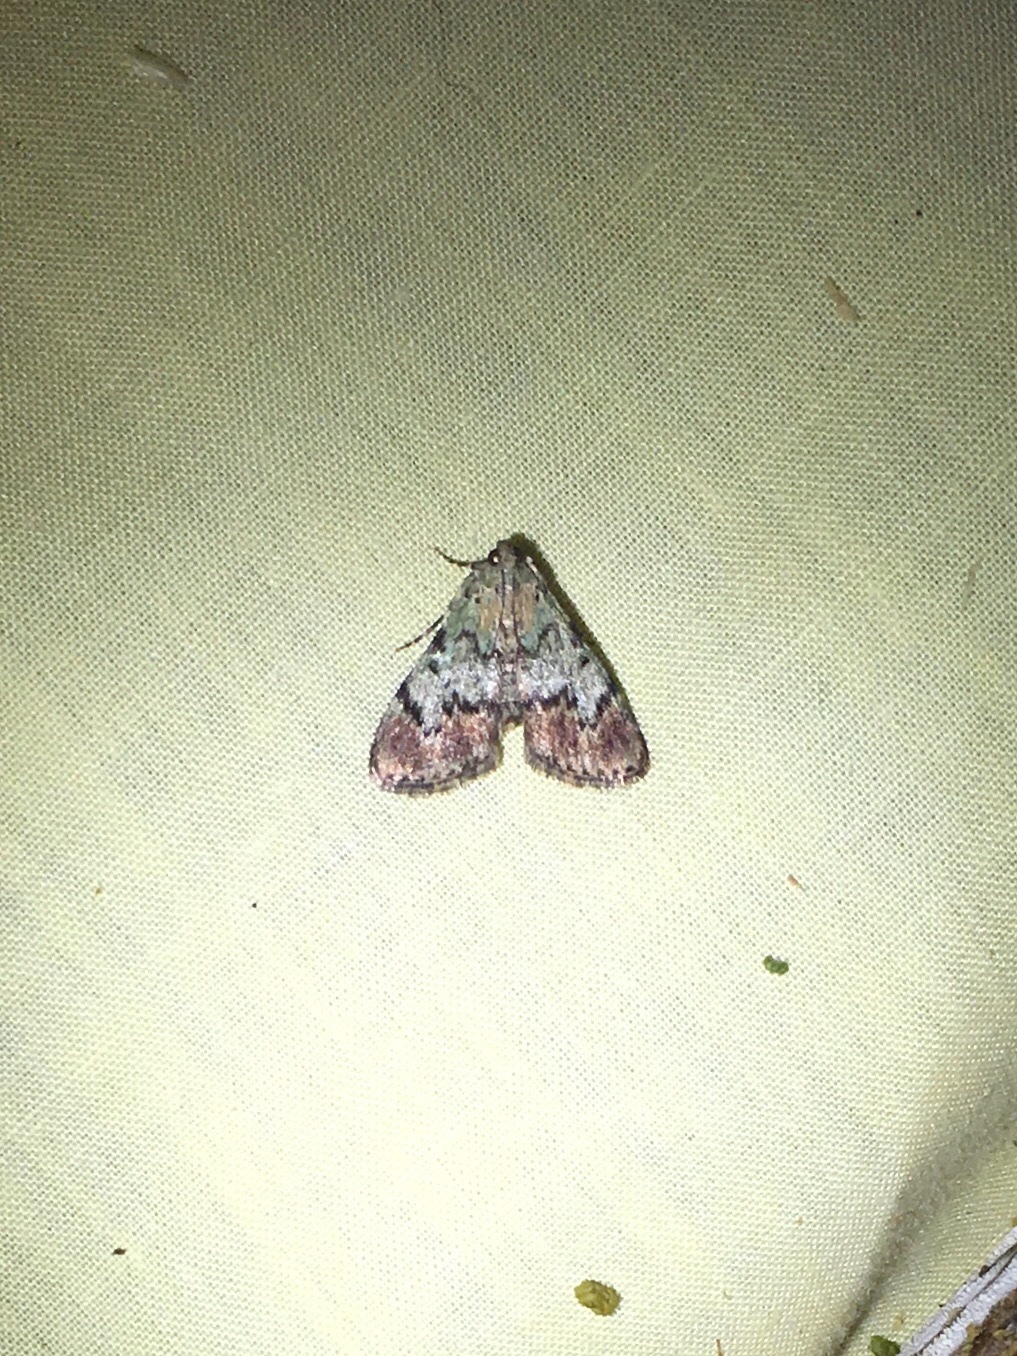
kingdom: Animalia
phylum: Arthropoda
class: Insecta
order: Lepidoptera
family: Pyralidae
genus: Epipaschia
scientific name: Epipaschia superatalis
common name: Dimorphic macalla moth
